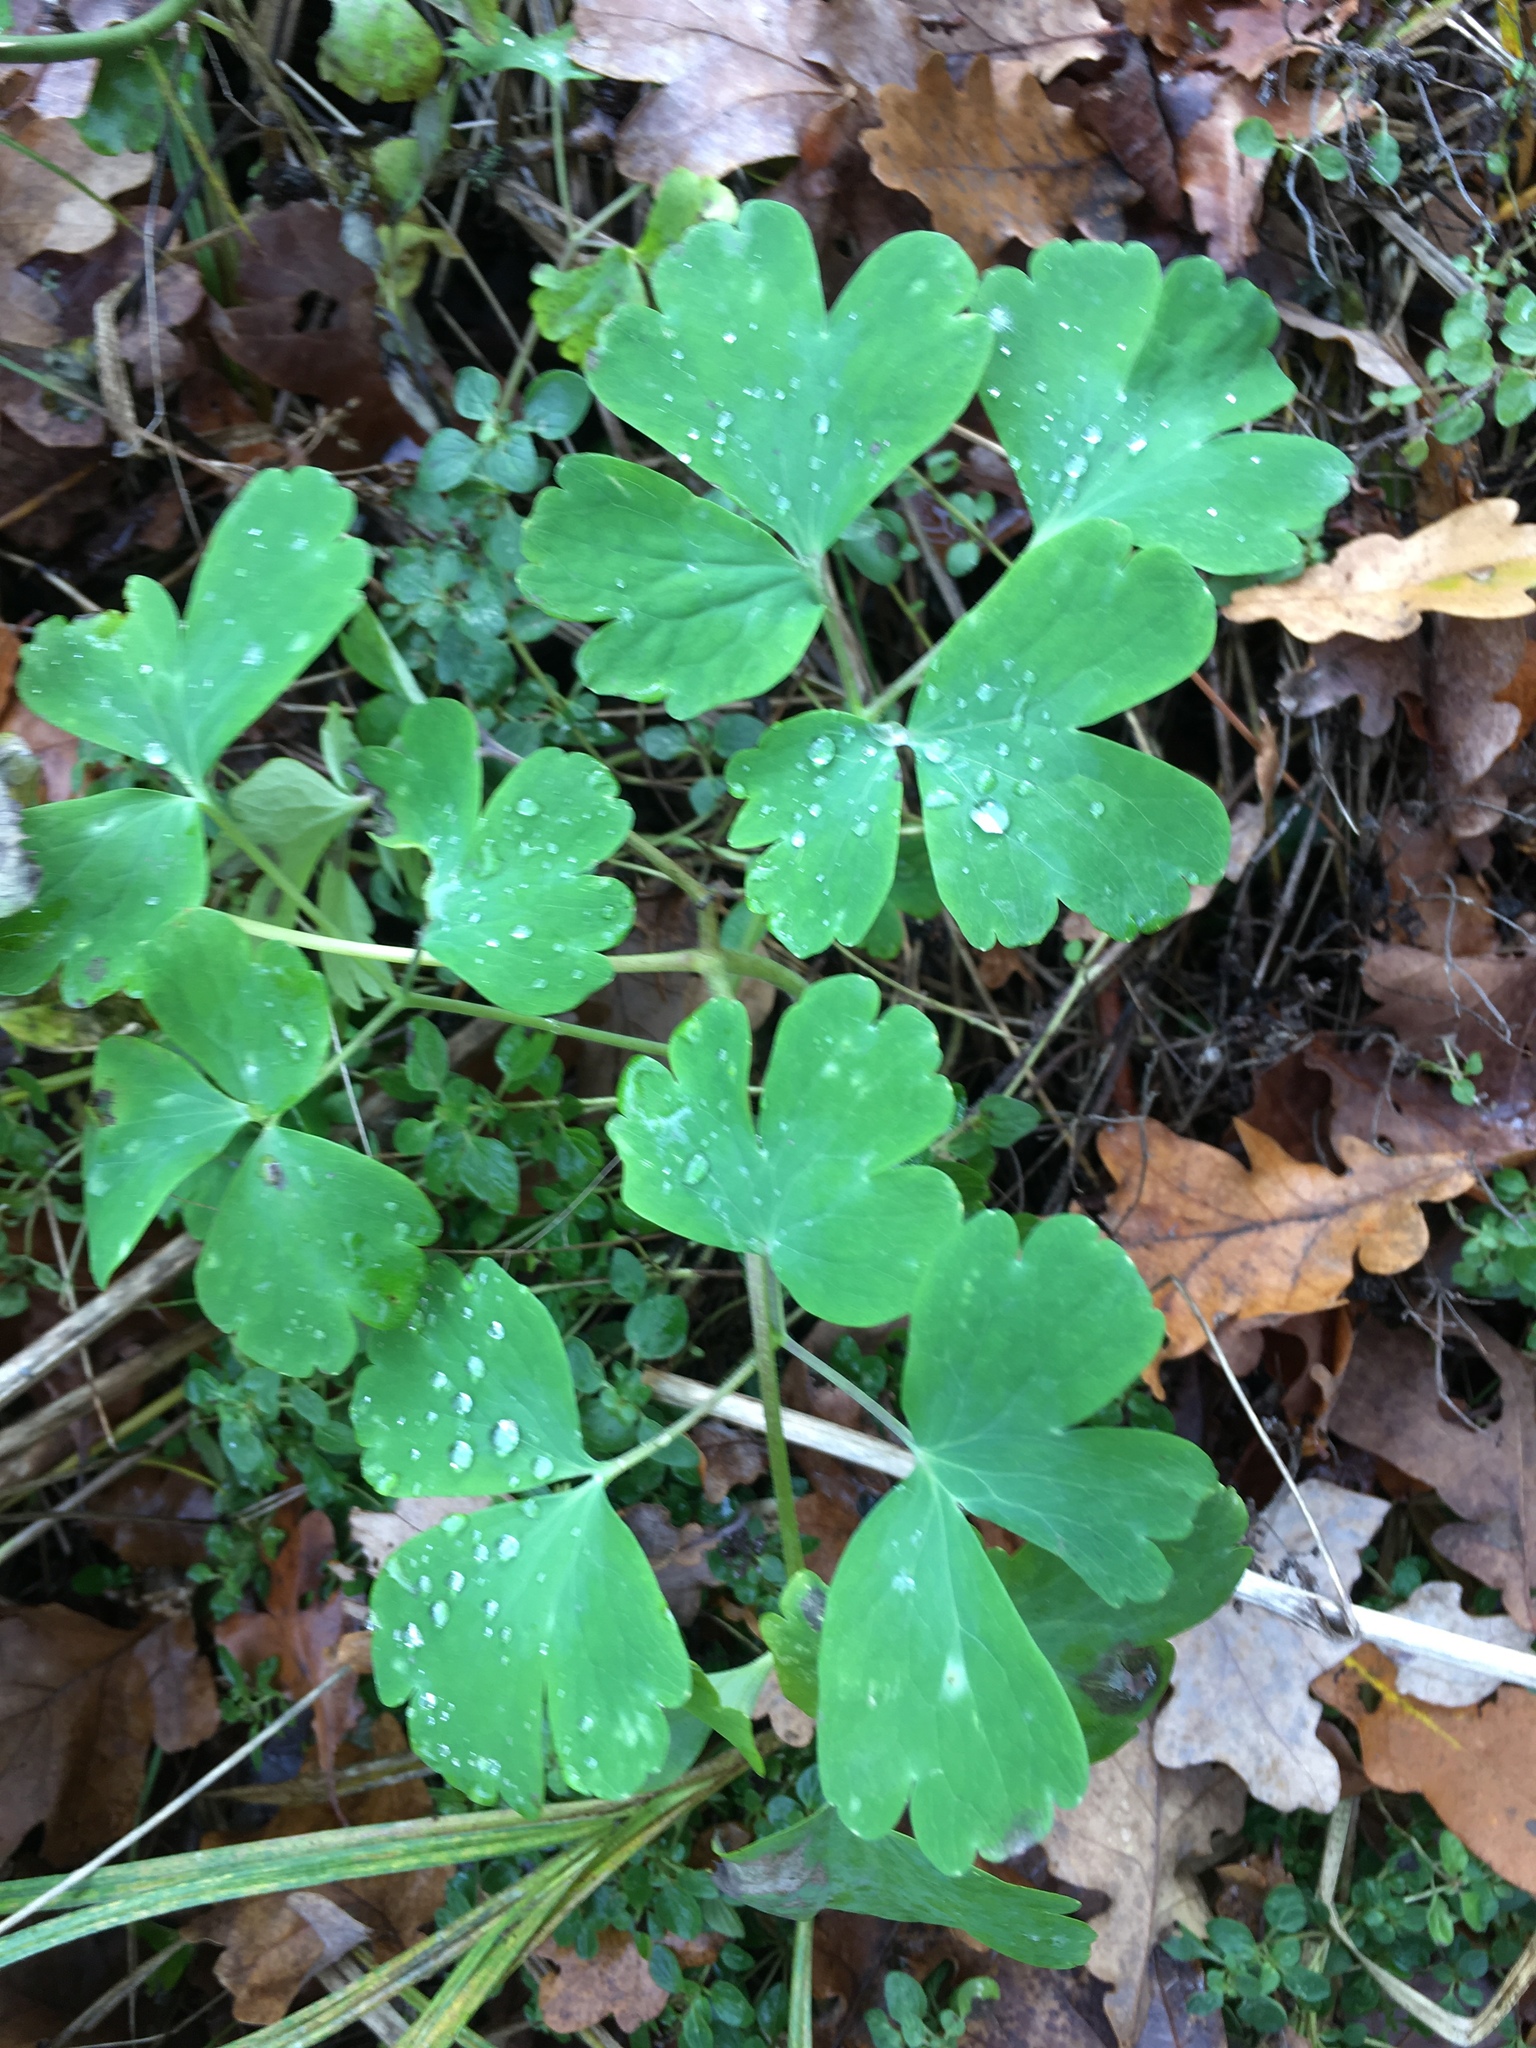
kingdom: Plantae
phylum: Tracheophyta
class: Magnoliopsida
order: Ranunculales
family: Ranunculaceae
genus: Aquilegia
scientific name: Aquilegia vulgaris
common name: Columbine
